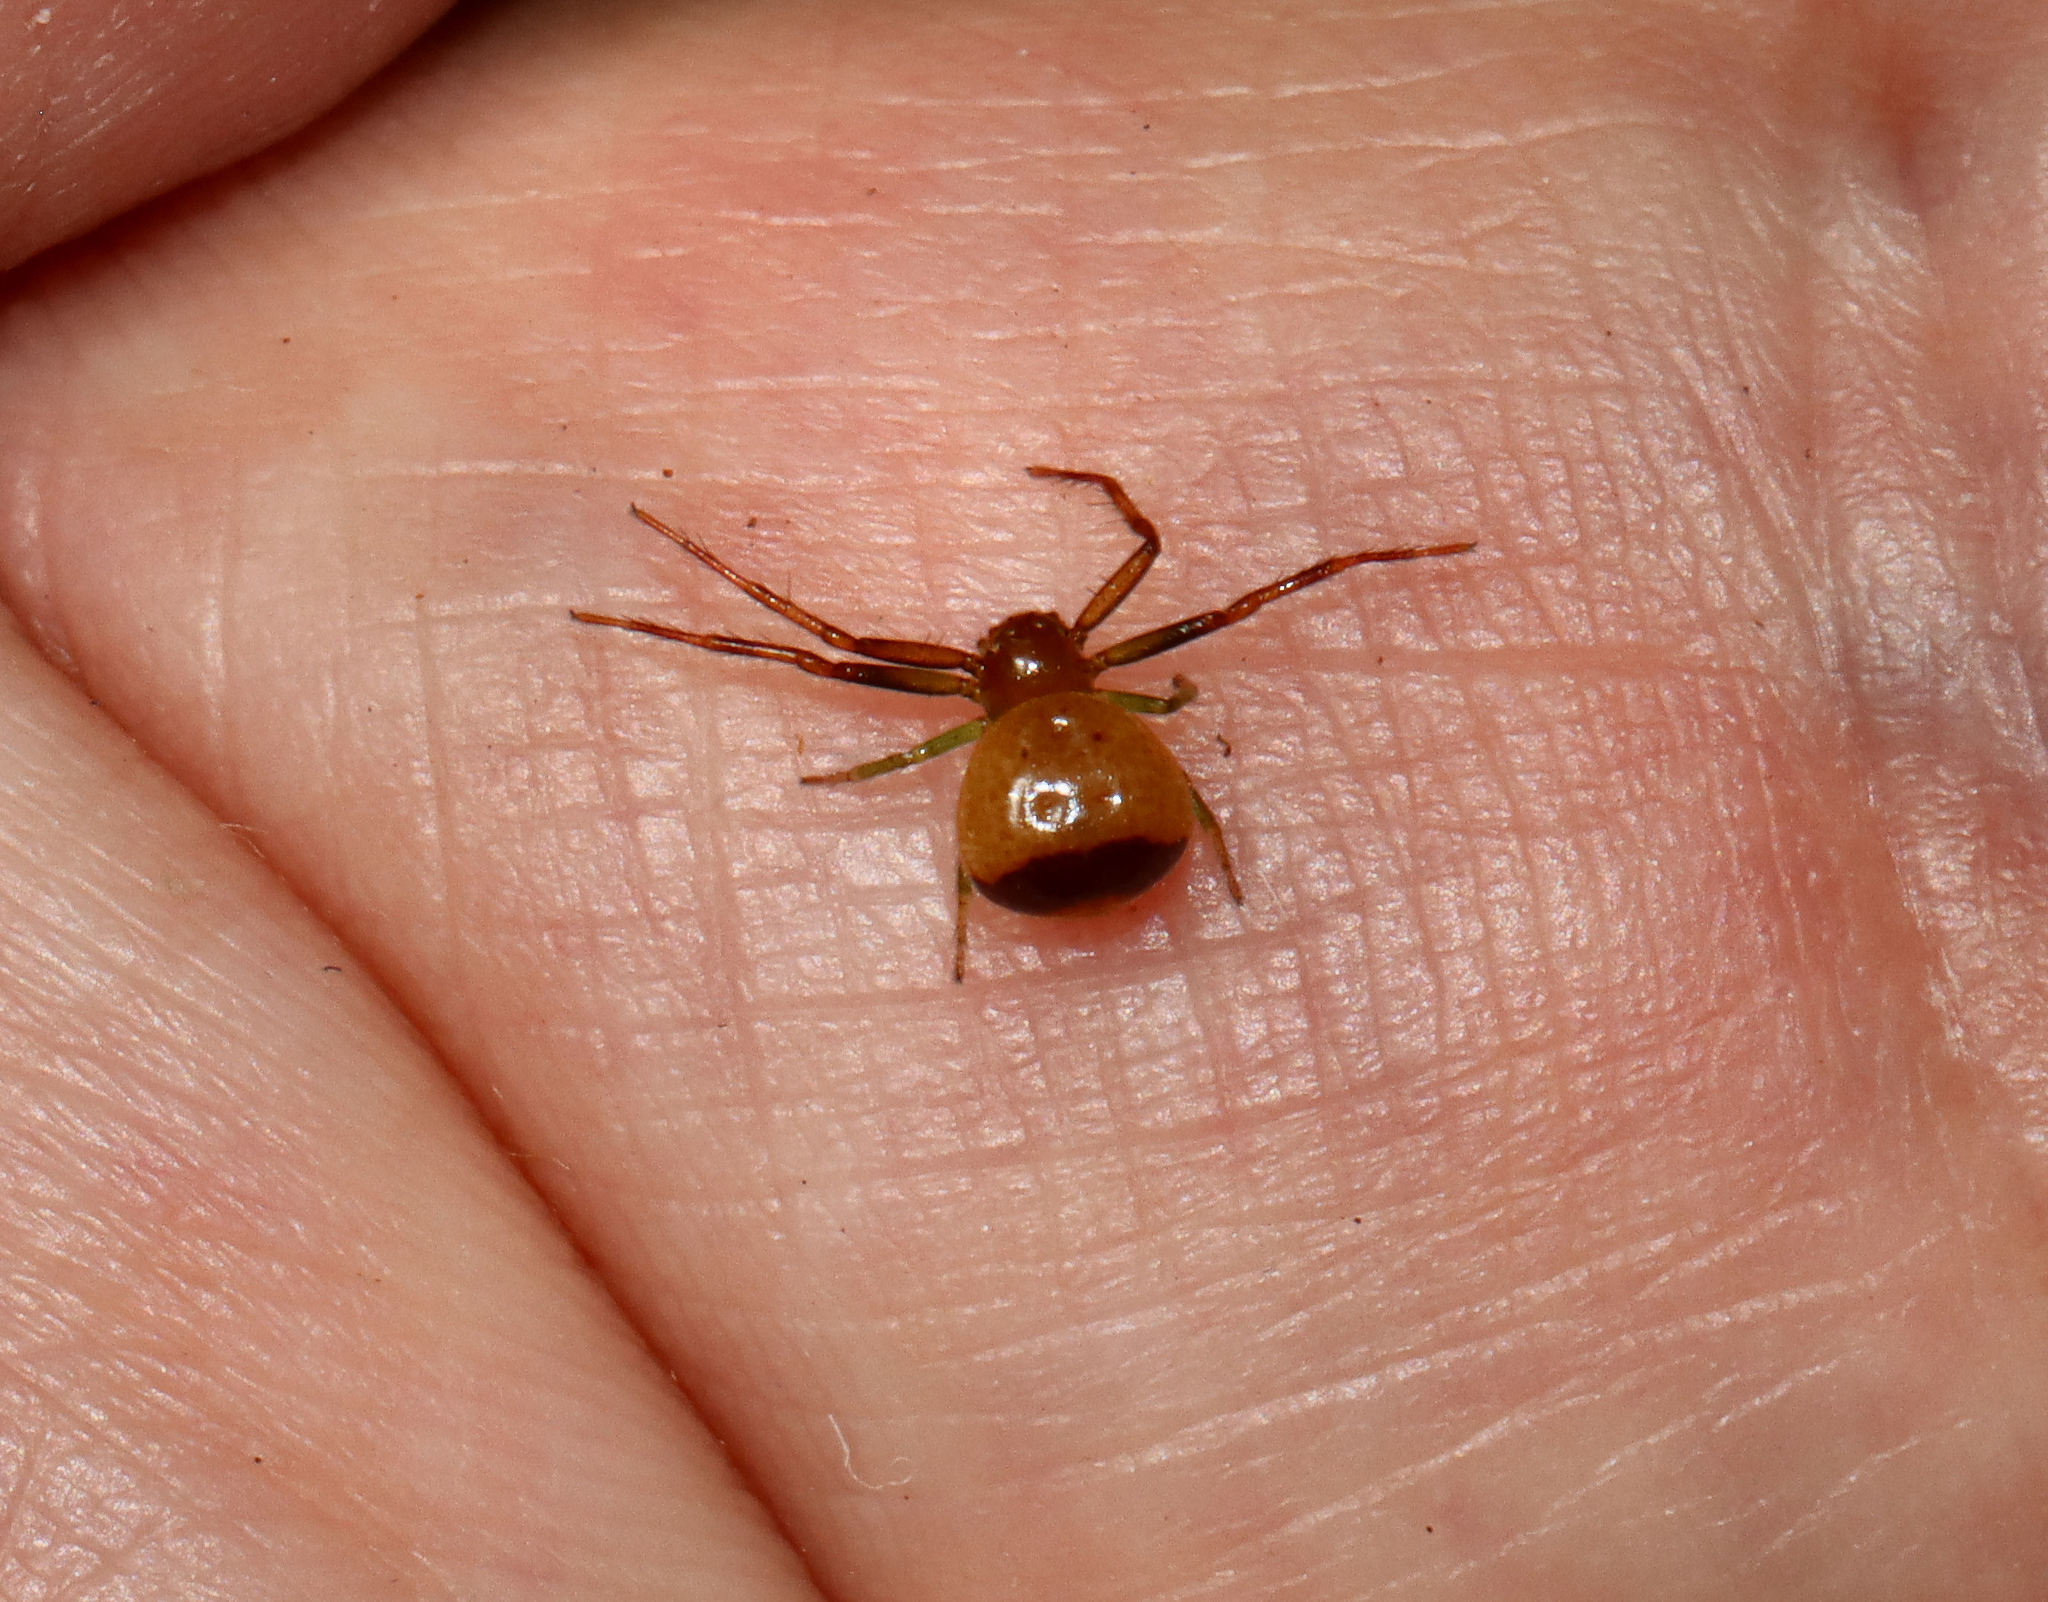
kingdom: Animalia
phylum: Arthropoda
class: Arachnida
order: Araneae
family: Thomisidae
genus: Synema
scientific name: Synema parvulum
